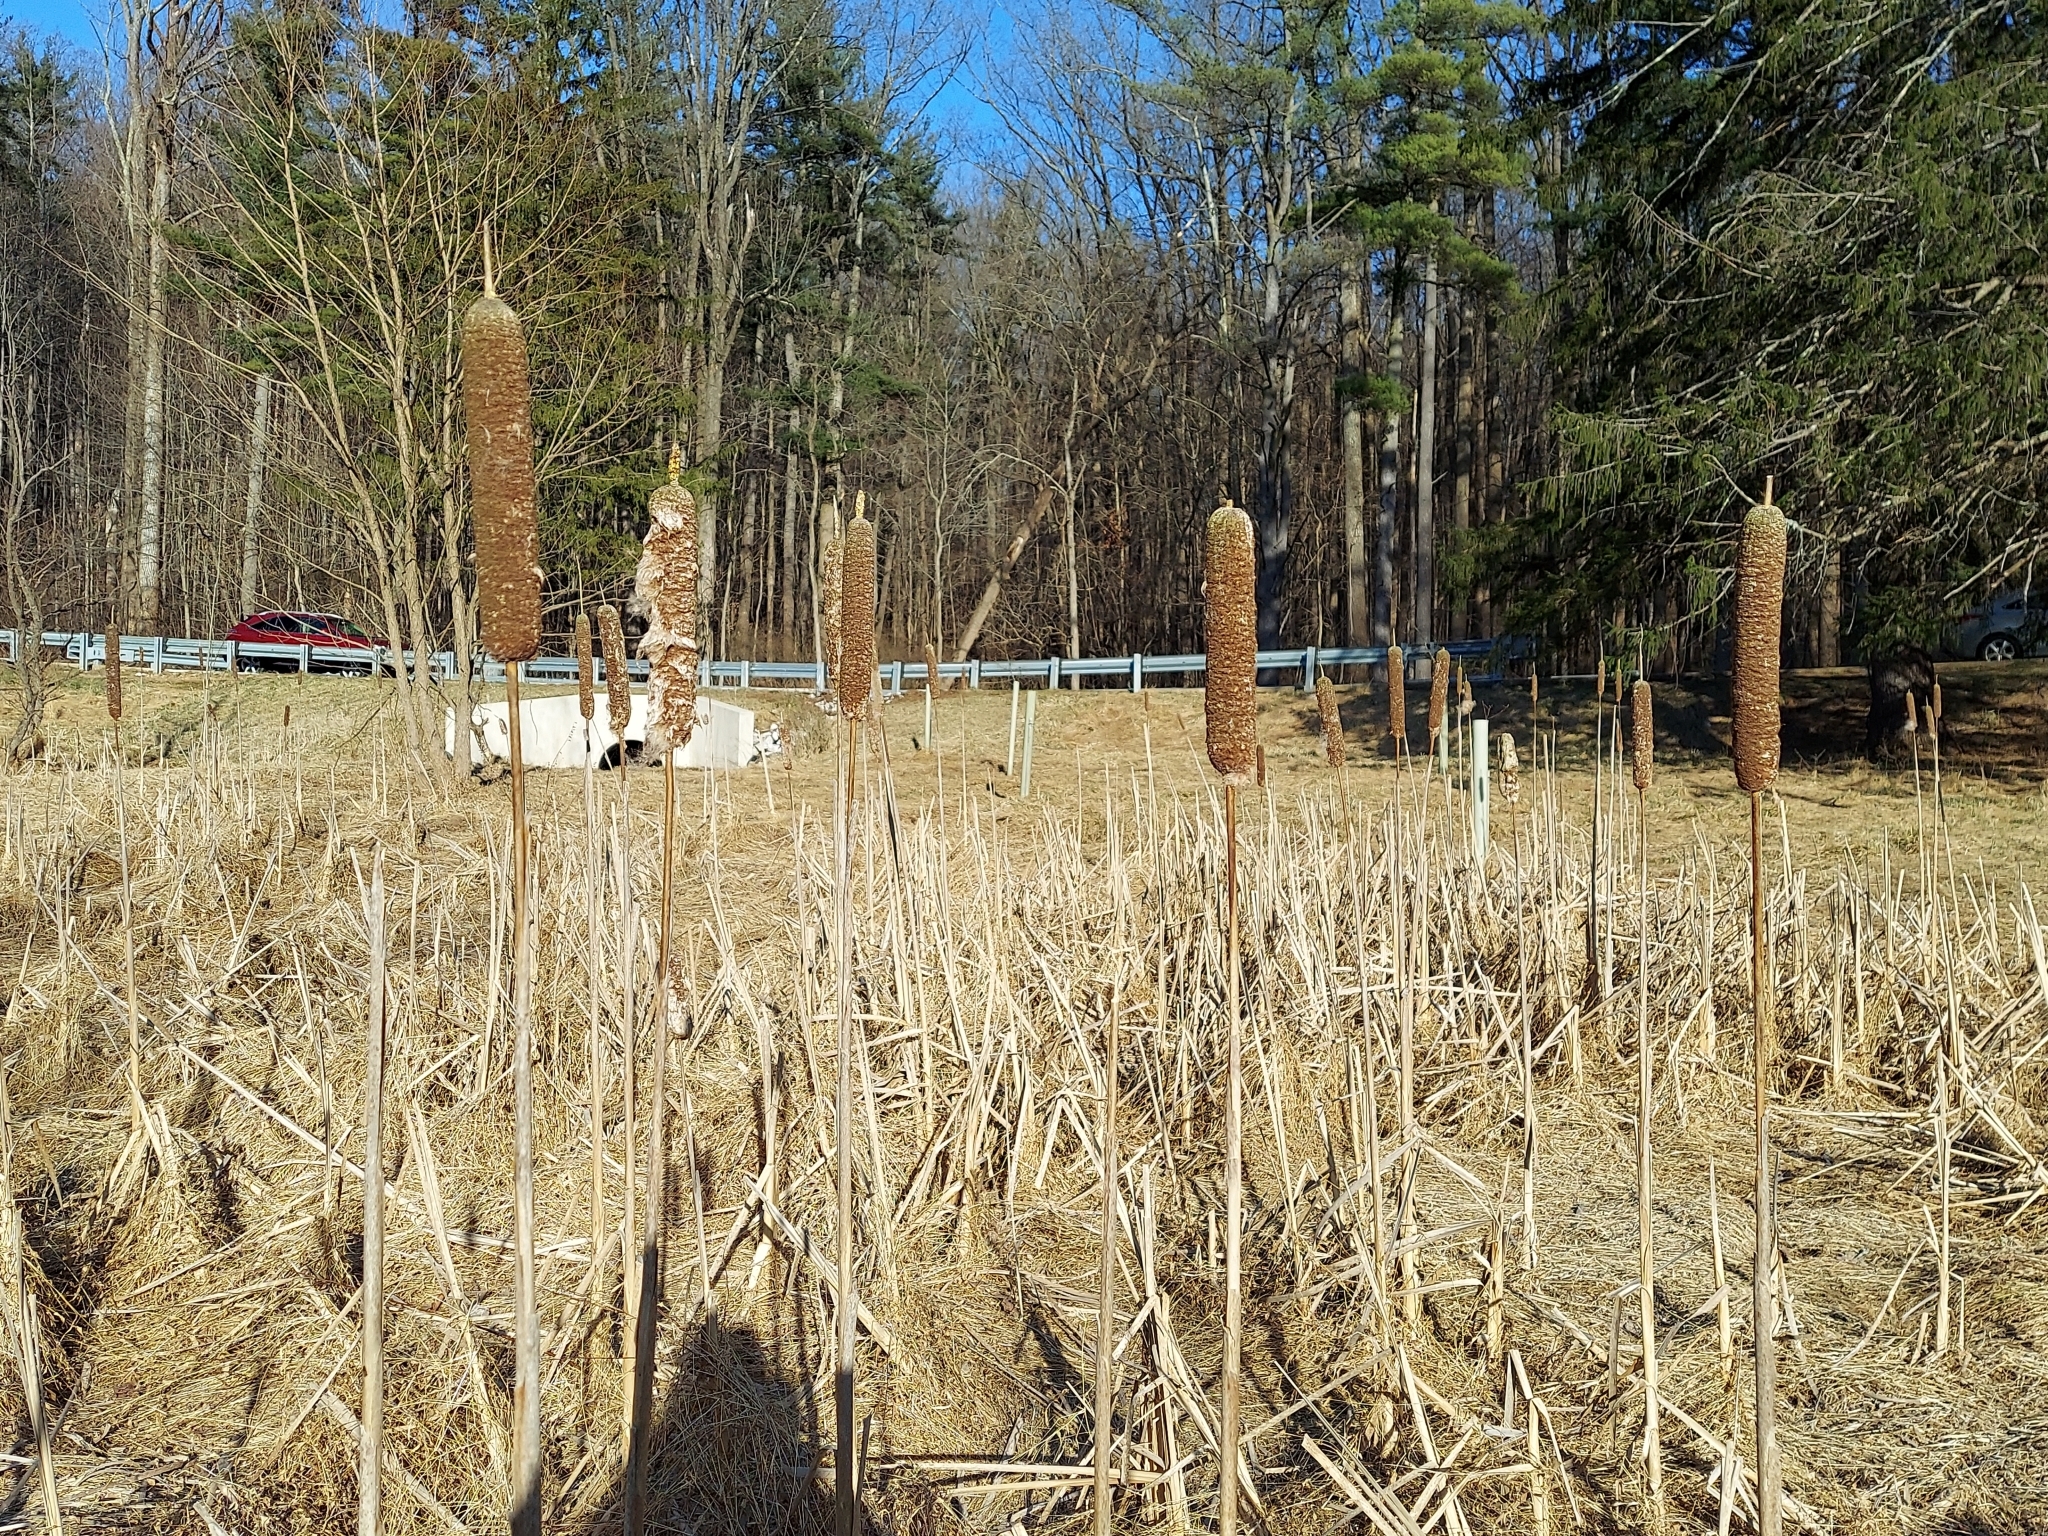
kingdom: Plantae
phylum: Tracheophyta
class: Liliopsida
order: Poales
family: Typhaceae
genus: Typha
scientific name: Typha latifolia
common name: Broadleaf cattail
